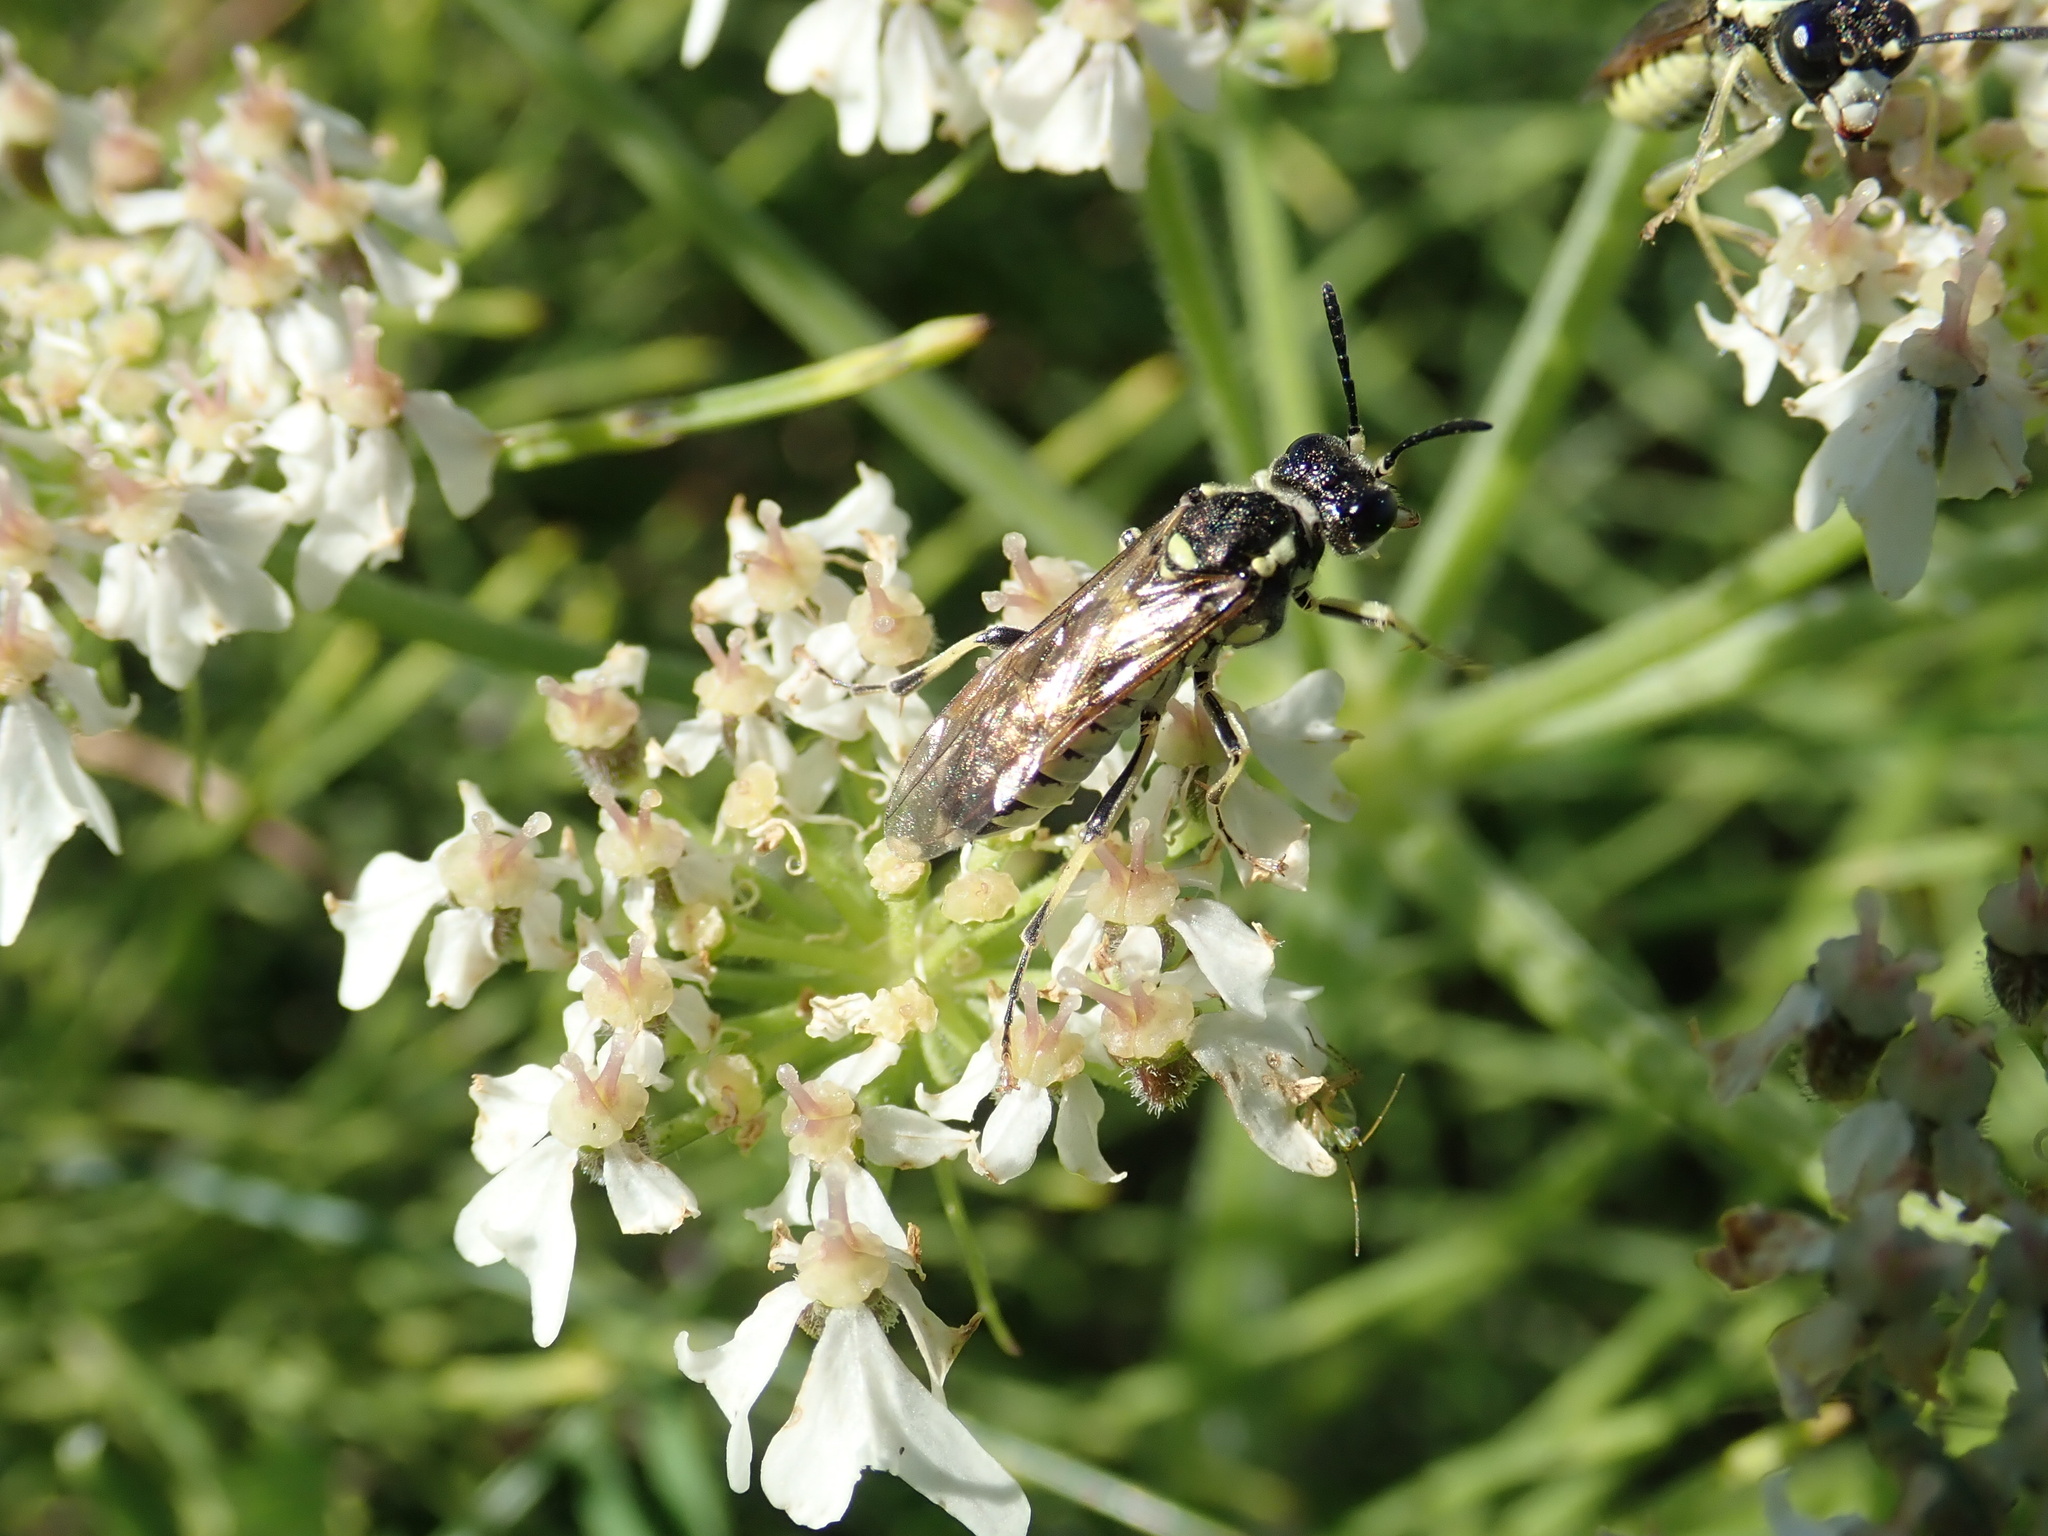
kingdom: Animalia
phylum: Arthropoda
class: Insecta
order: Hymenoptera
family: Tenthredinidae
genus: Tenthredo
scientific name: Tenthredo notha
